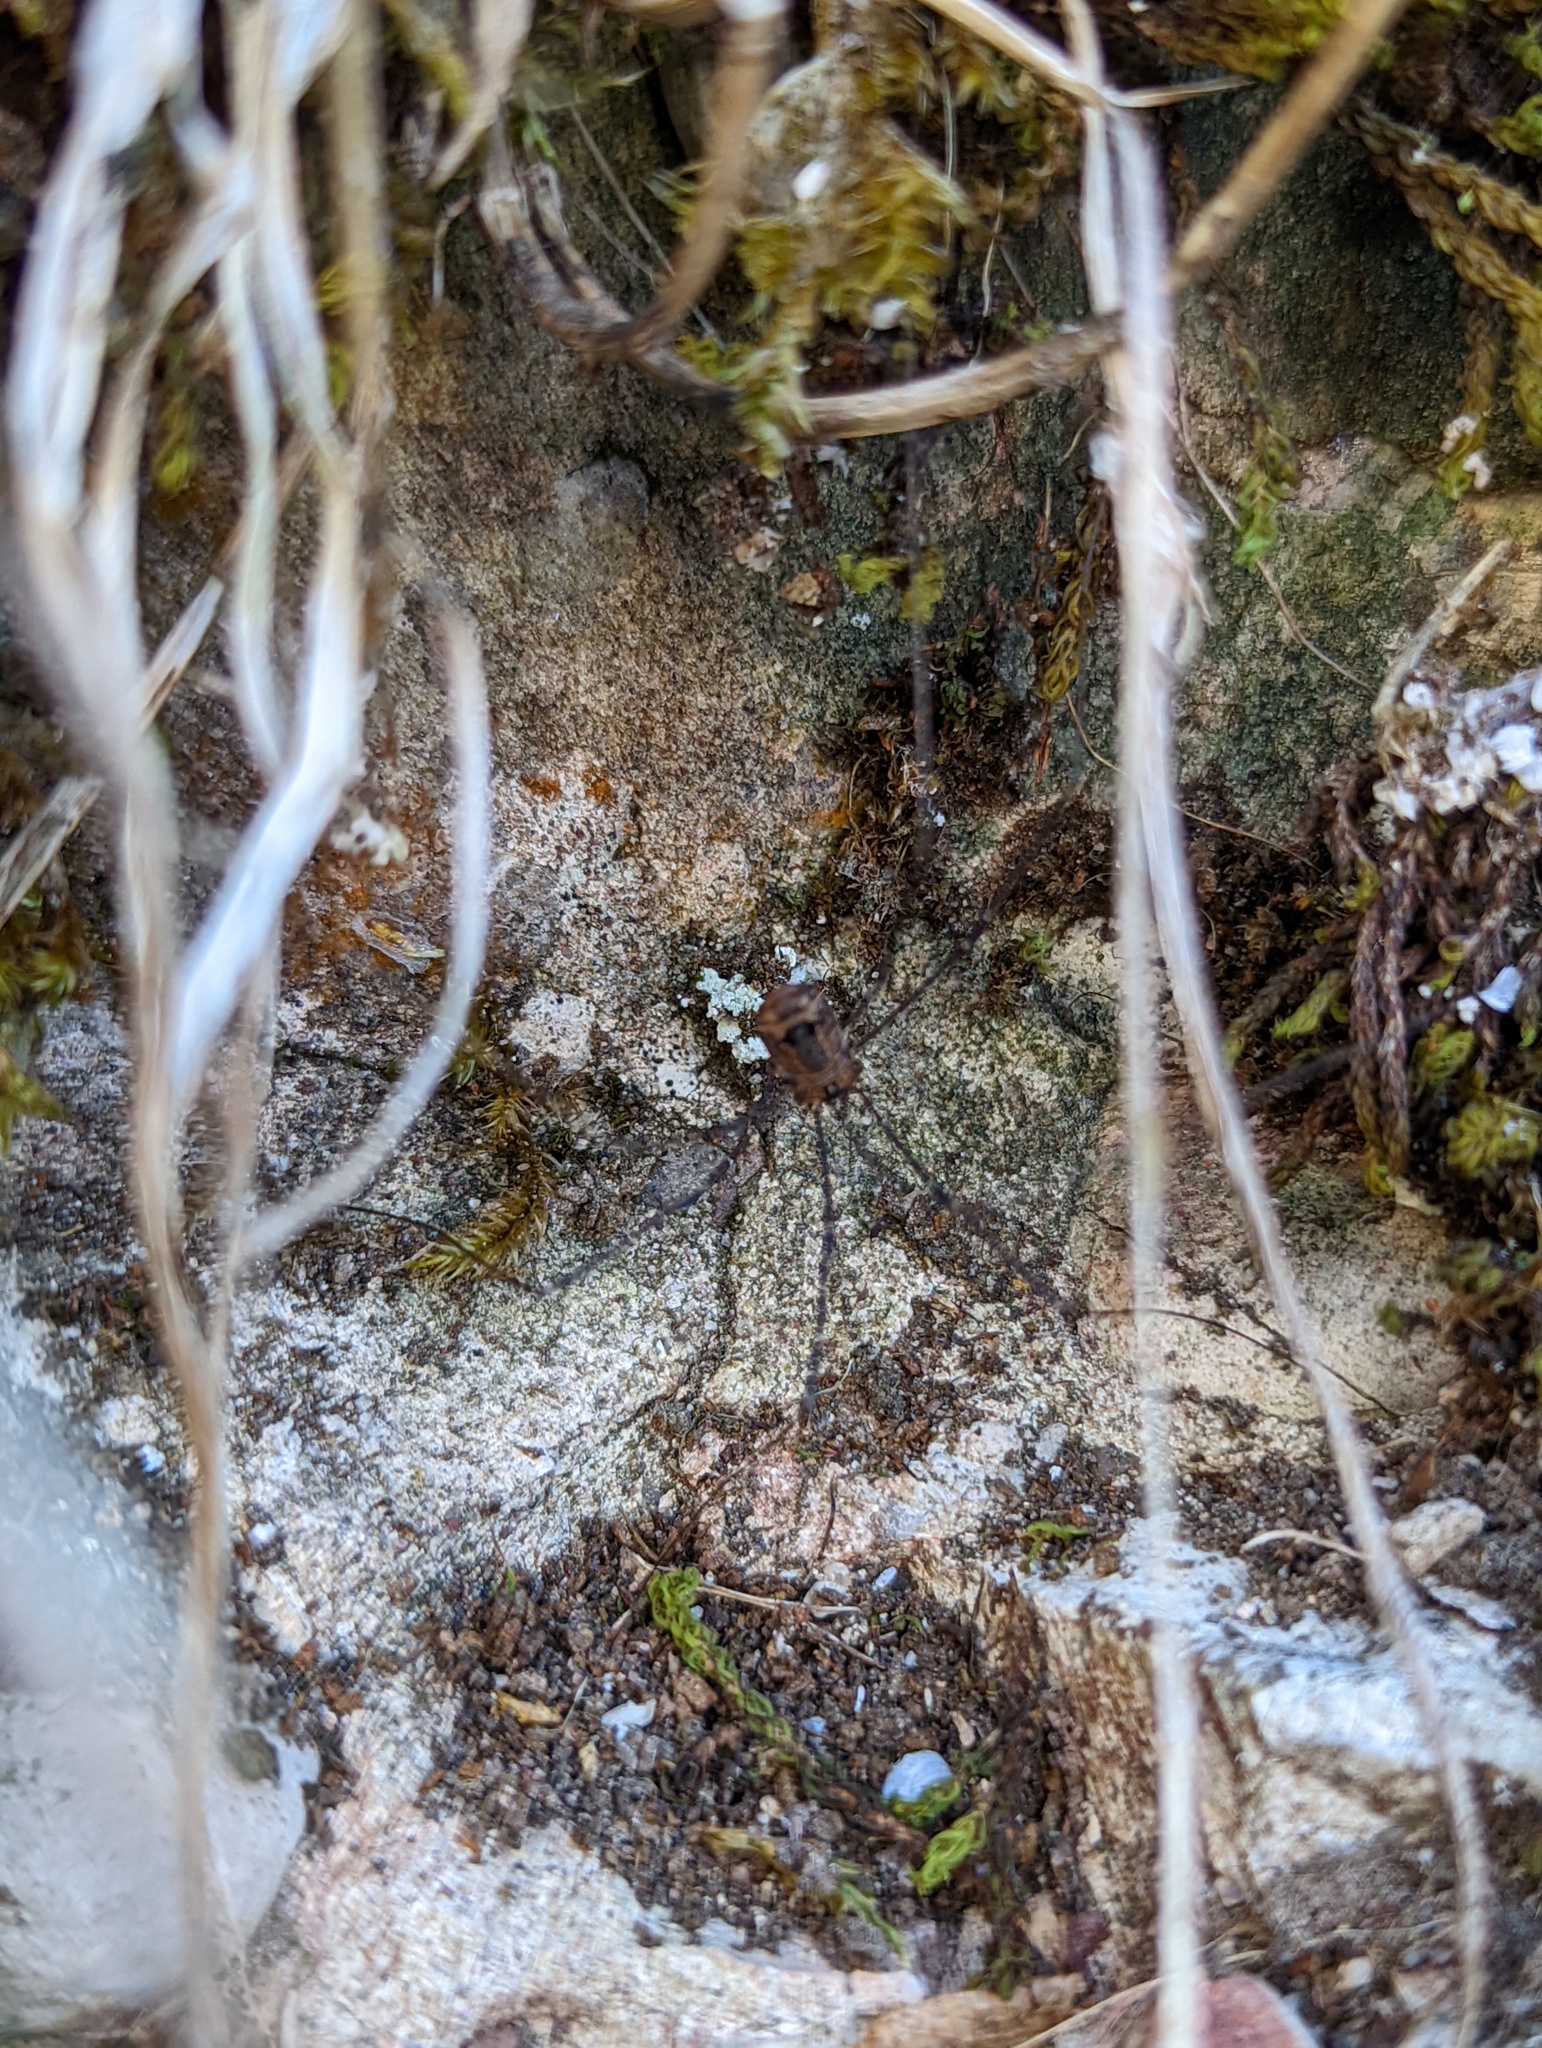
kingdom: Animalia
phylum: Arthropoda
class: Arachnida
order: Opiliones
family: Sclerosomatidae
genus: Leiobunum
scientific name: Leiobunum rotundum
